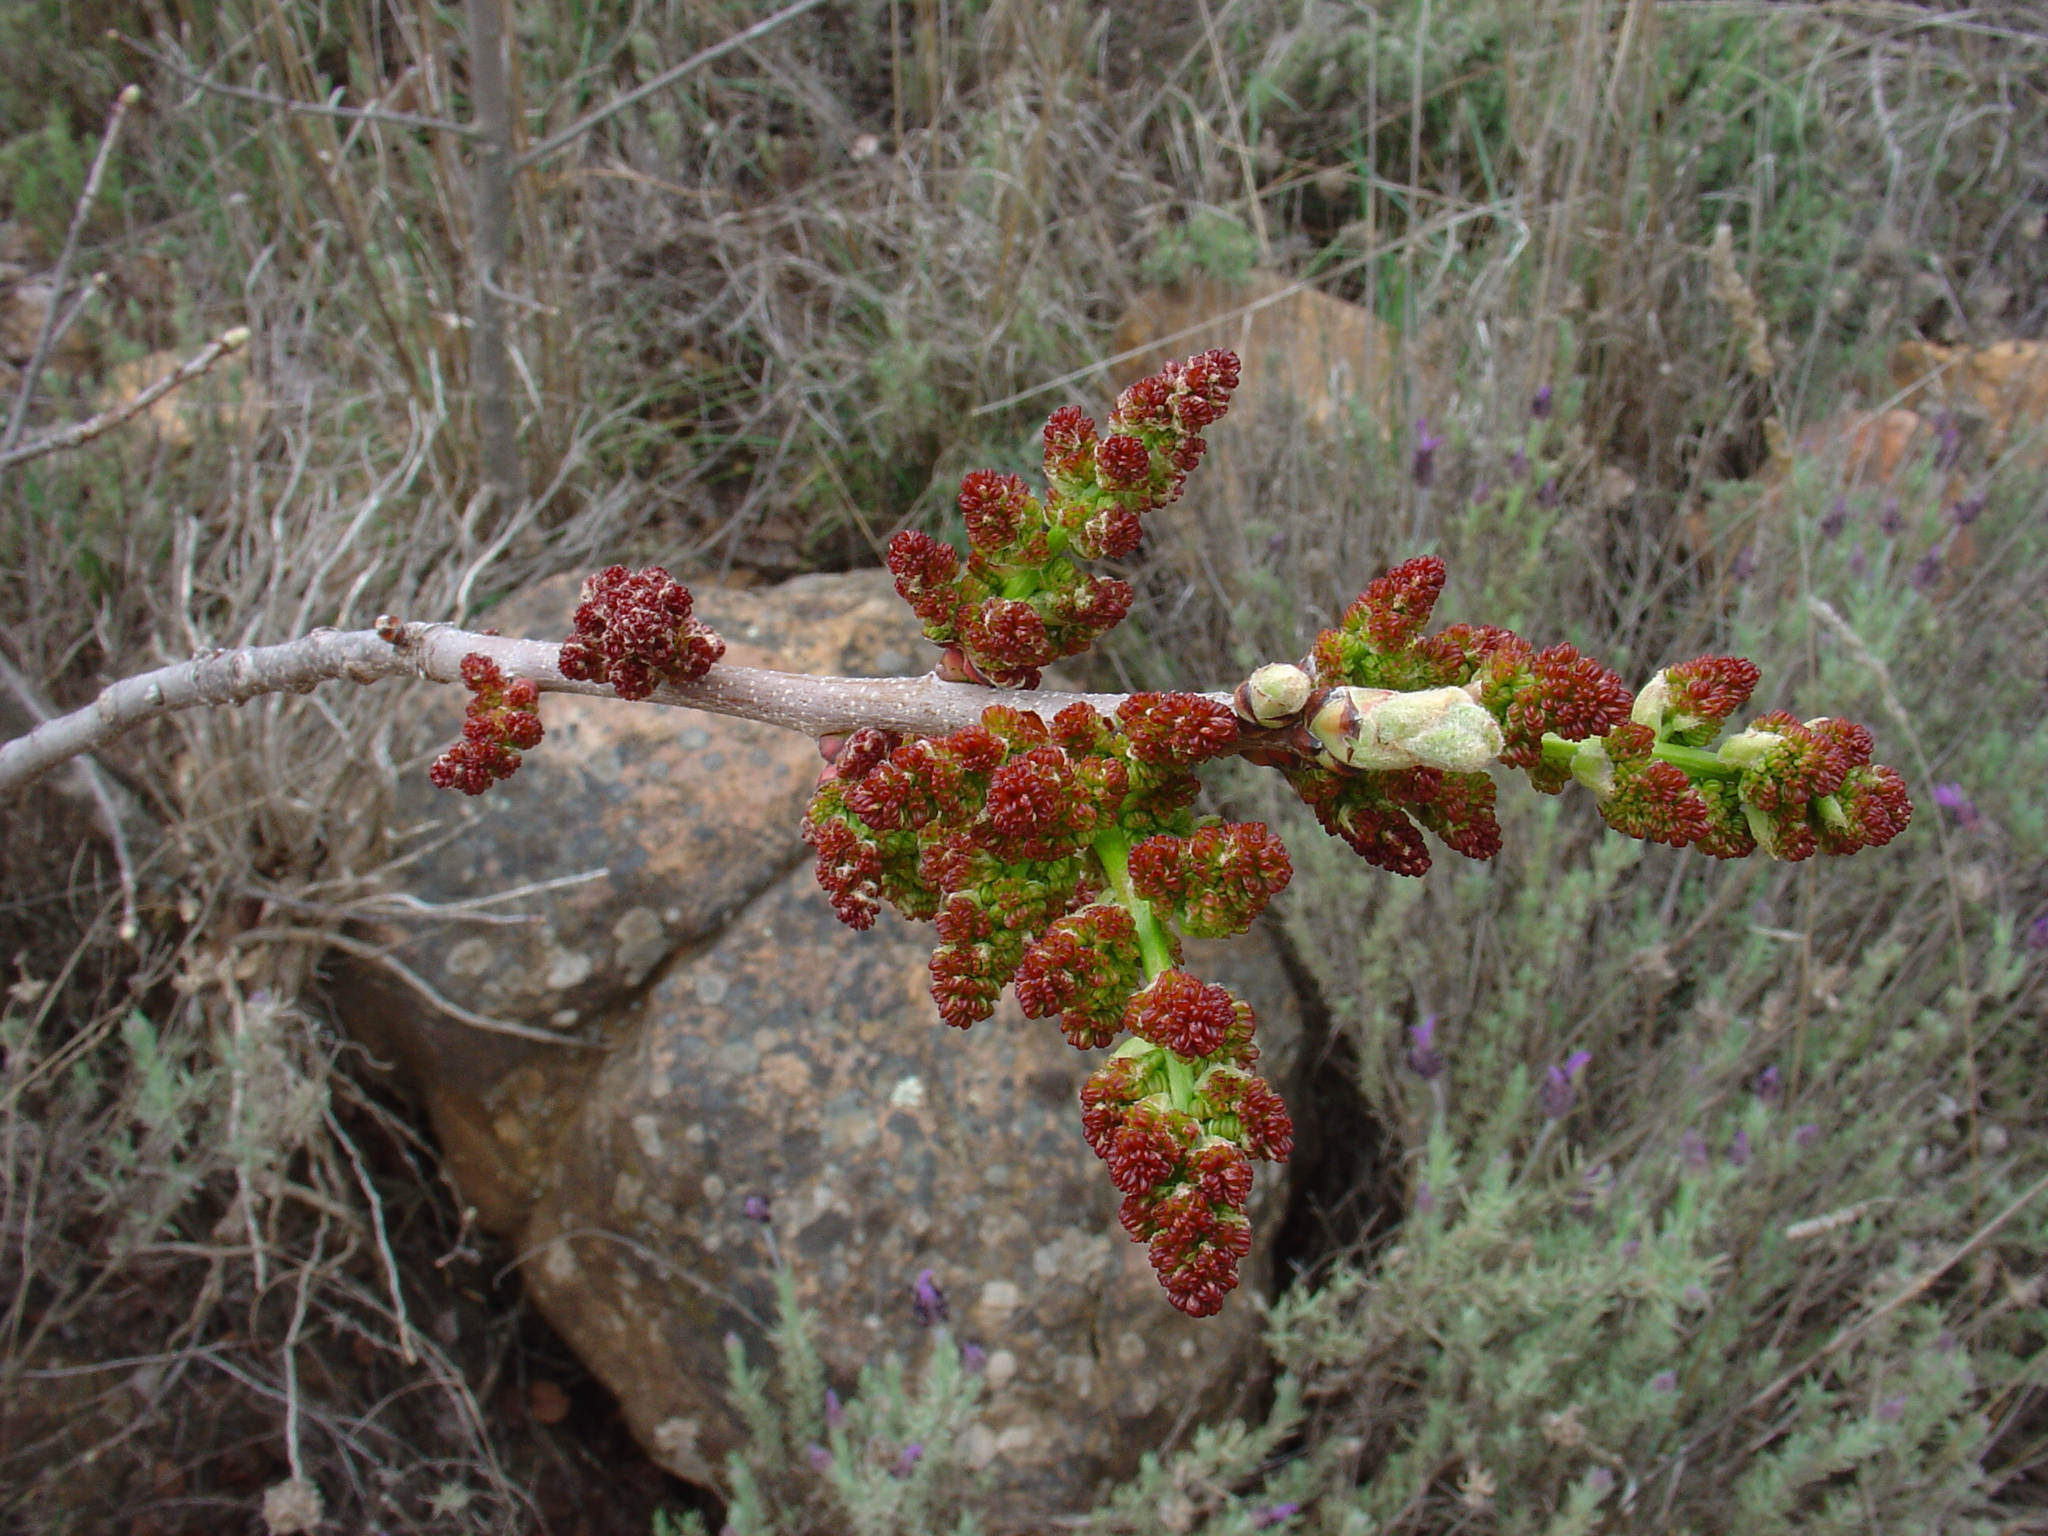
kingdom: Plantae
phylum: Tracheophyta
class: Magnoliopsida
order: Sapindales
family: Anacardiaceae
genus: Pistacia
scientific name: Pistacia terebinthus
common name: Terebinth
